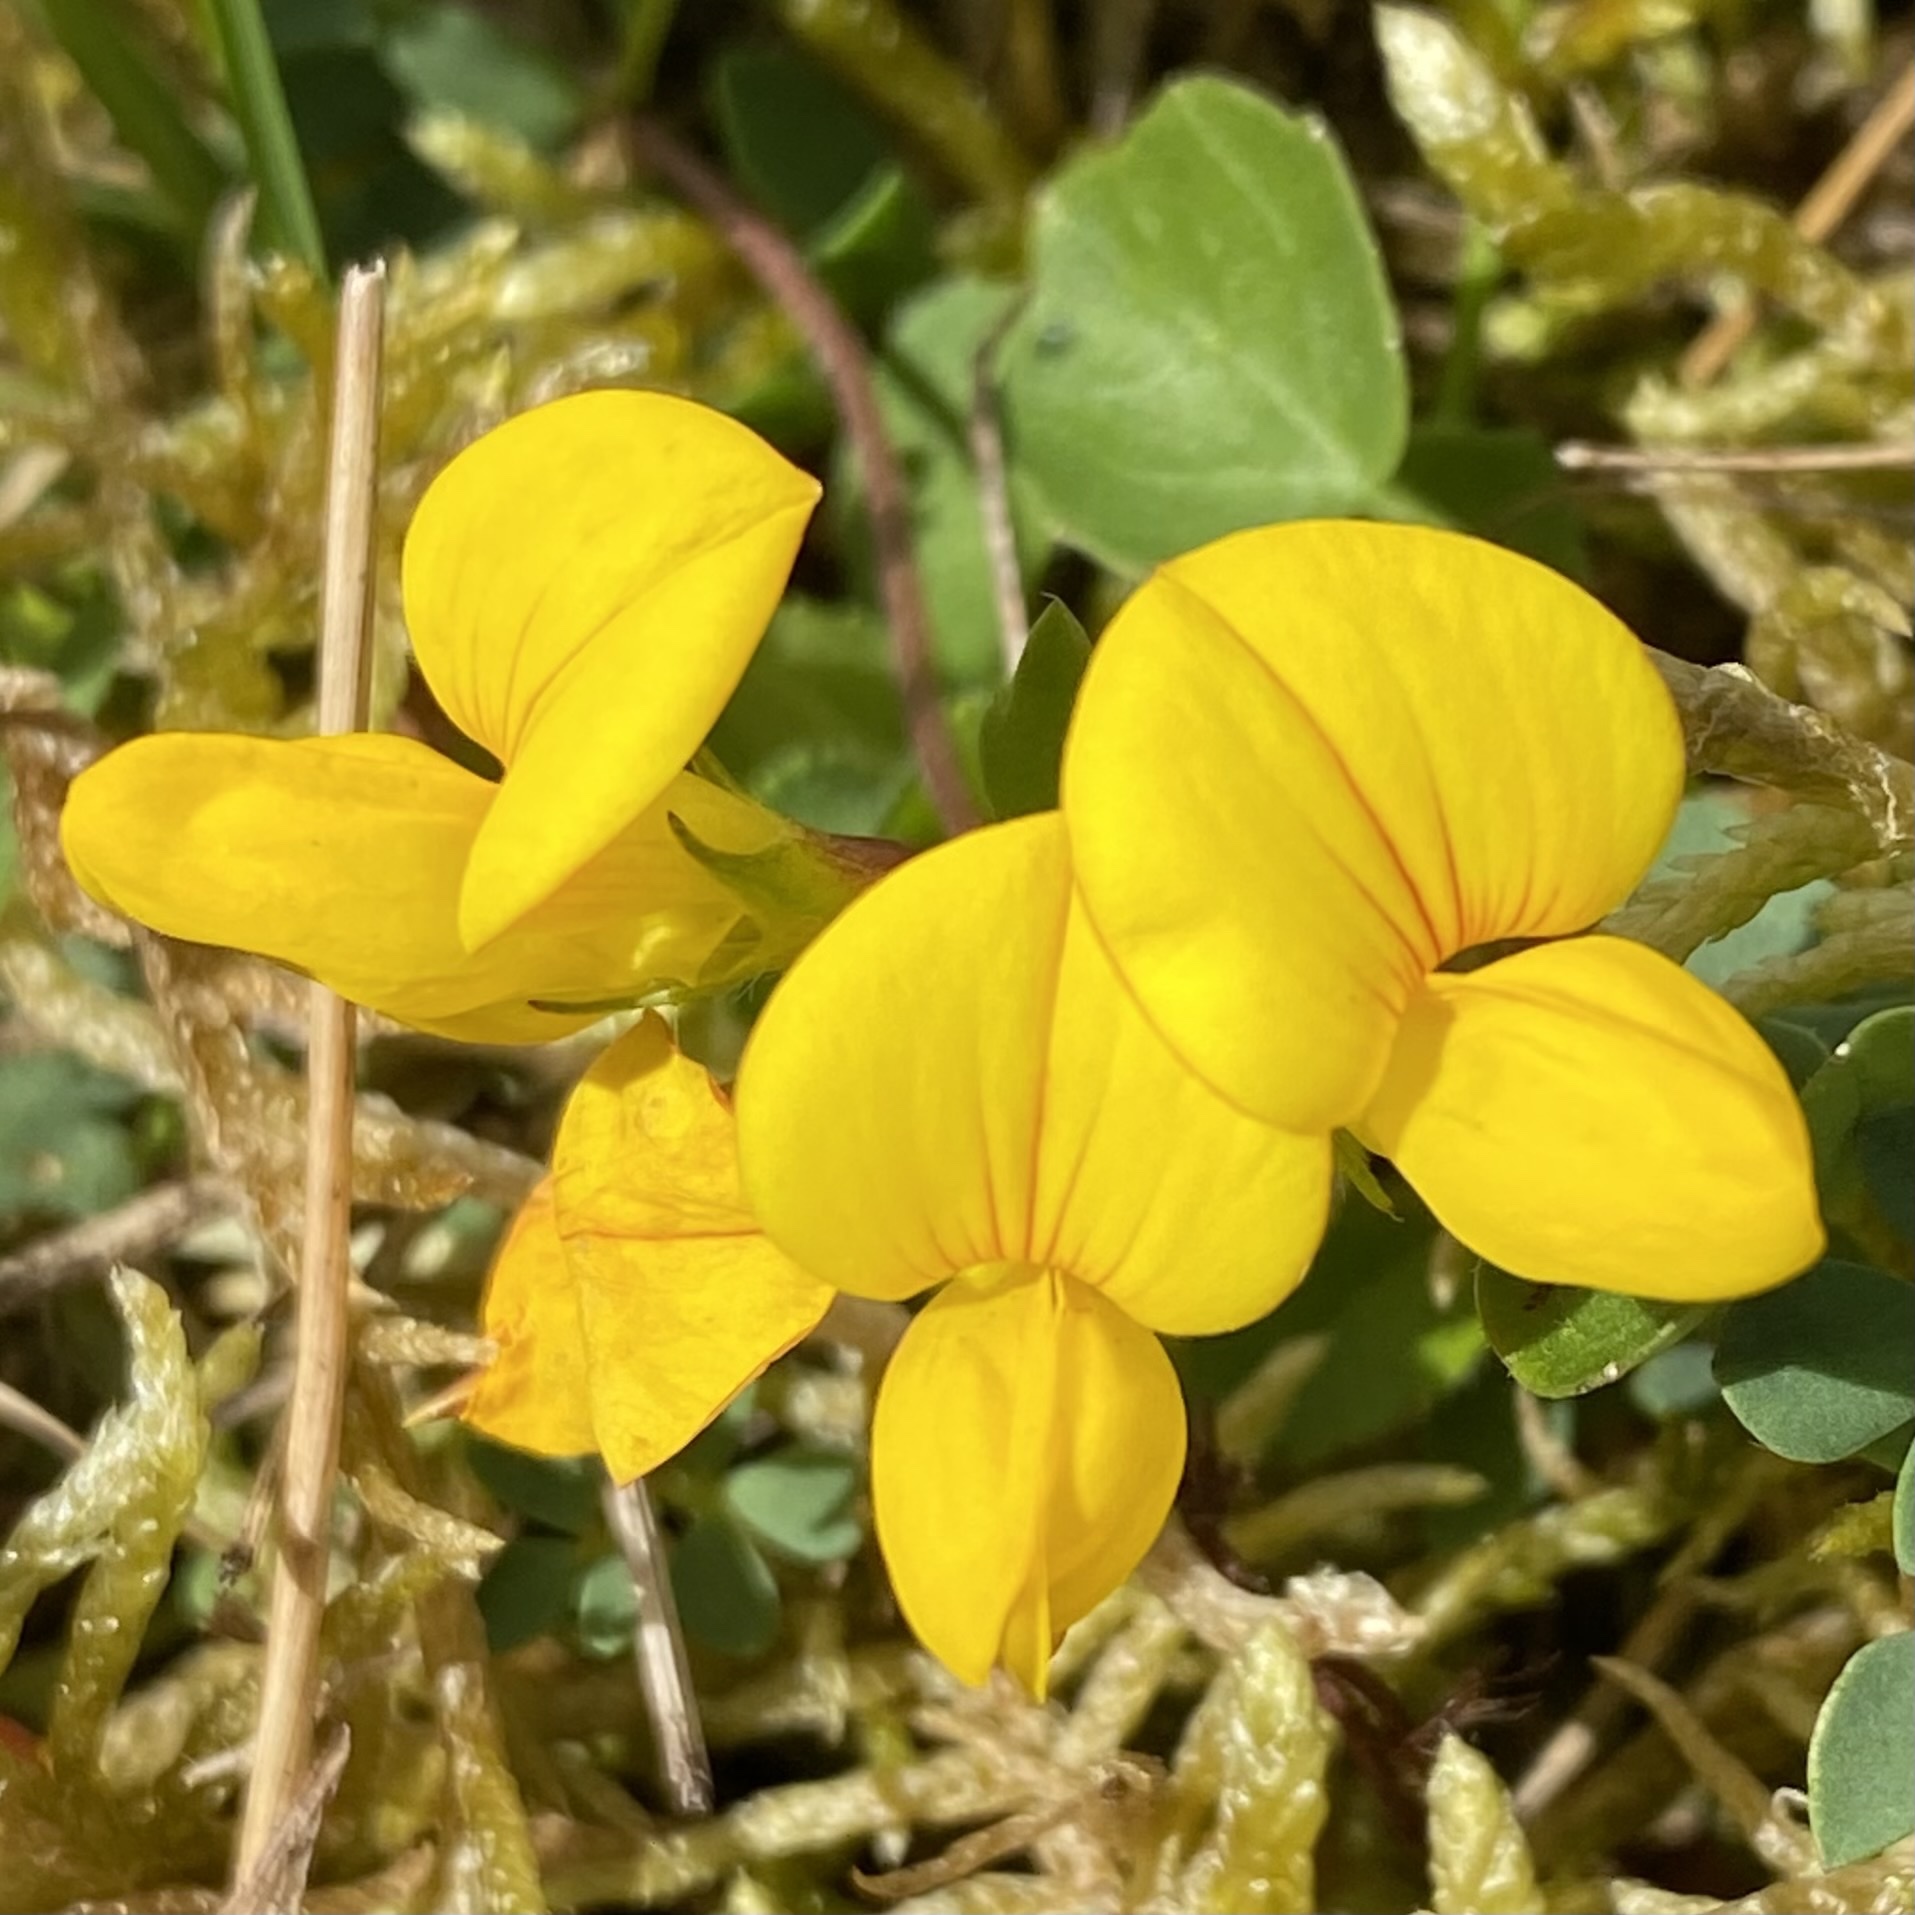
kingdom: Plantae
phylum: Tracheophyta
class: Magnoliopsida
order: Fabales
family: Fabaceae
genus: Lotus
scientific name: Lotus corniculatus
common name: Common bird's-foot-trefoil
